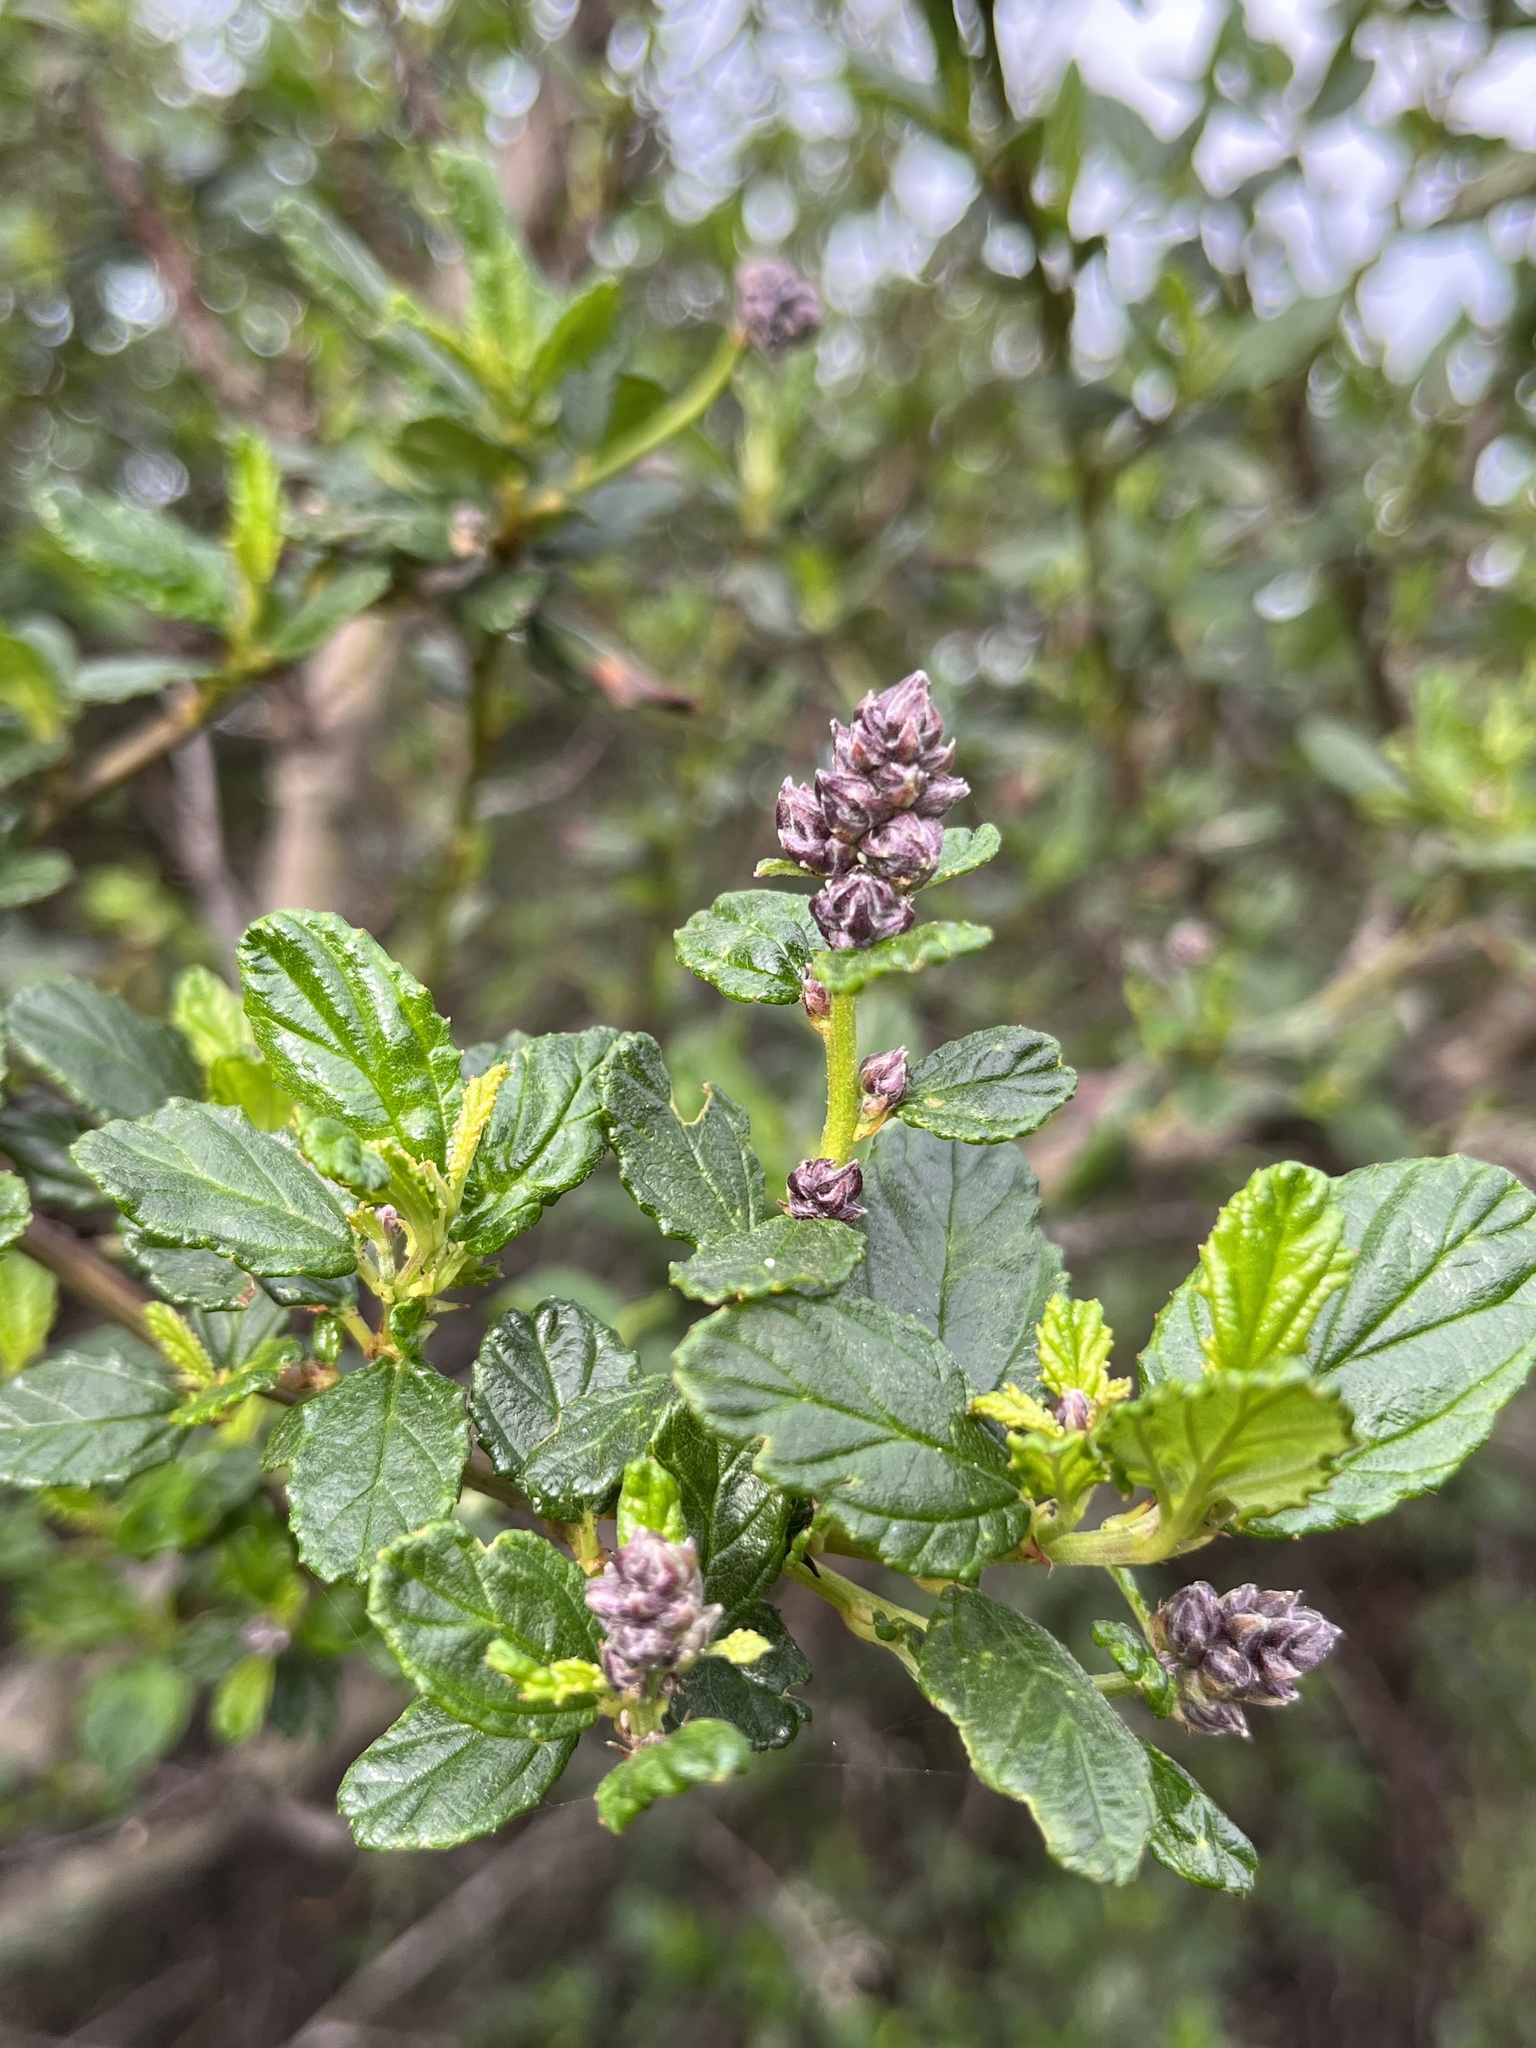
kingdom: Plantae
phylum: Tracheophyta
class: Magnoliopsida
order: Rosales
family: Rhamnaceae
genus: Ceanothus
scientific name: Ceanothus thyrsiflorus
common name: California-lilac
